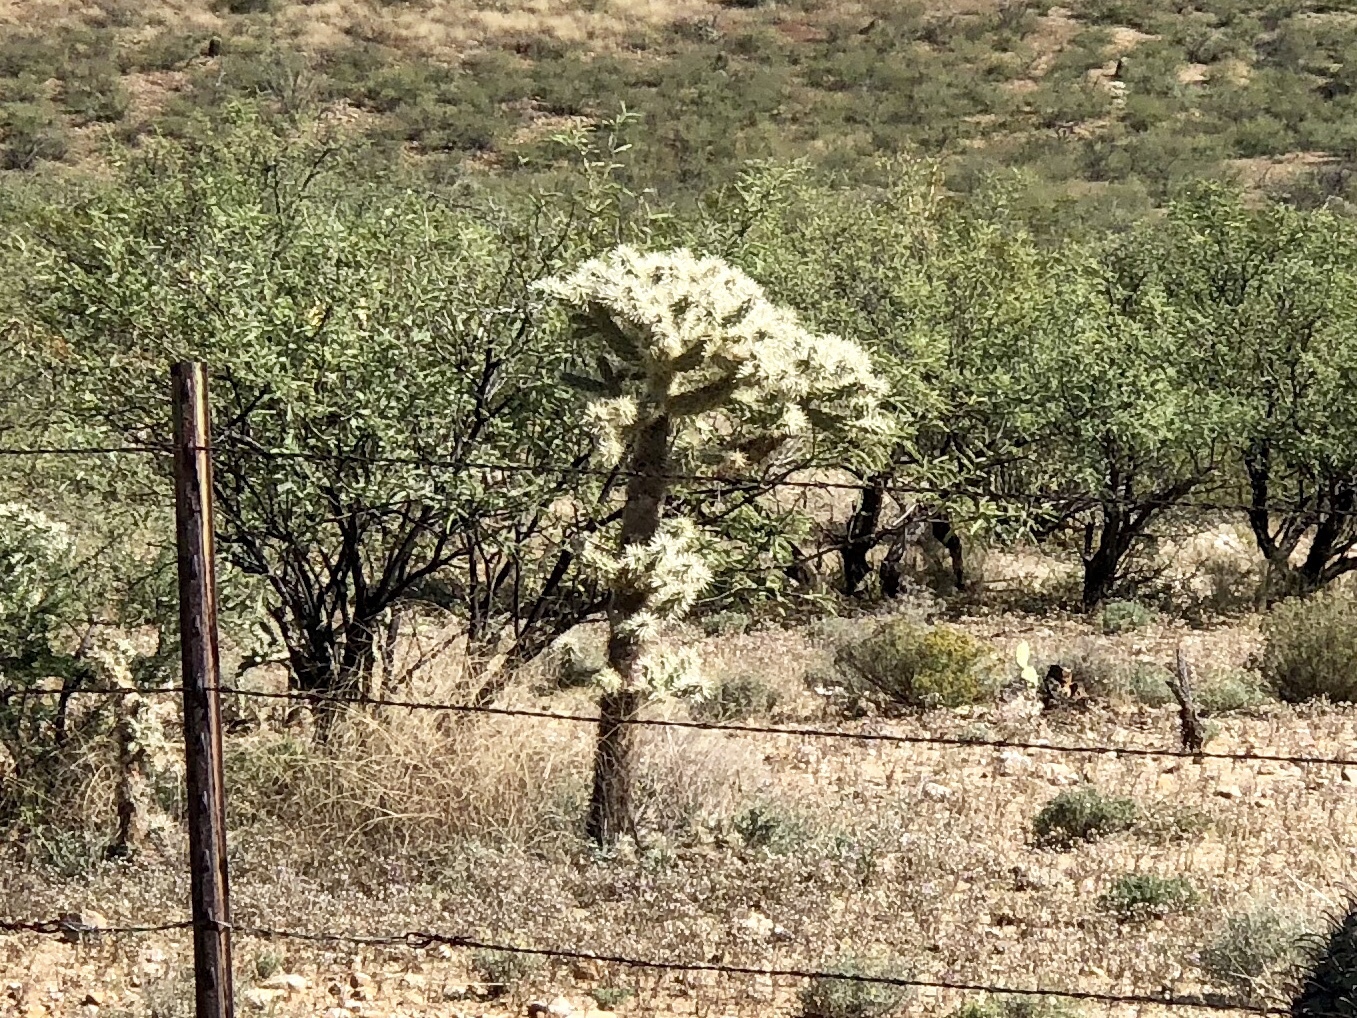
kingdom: Plantae
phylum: Tracheophyta
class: Magnoliopsida
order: Caryophyllales
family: Cactaceae
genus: Cylindropuntia
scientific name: Cylindropuntia fulgida
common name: Jumping cholla
